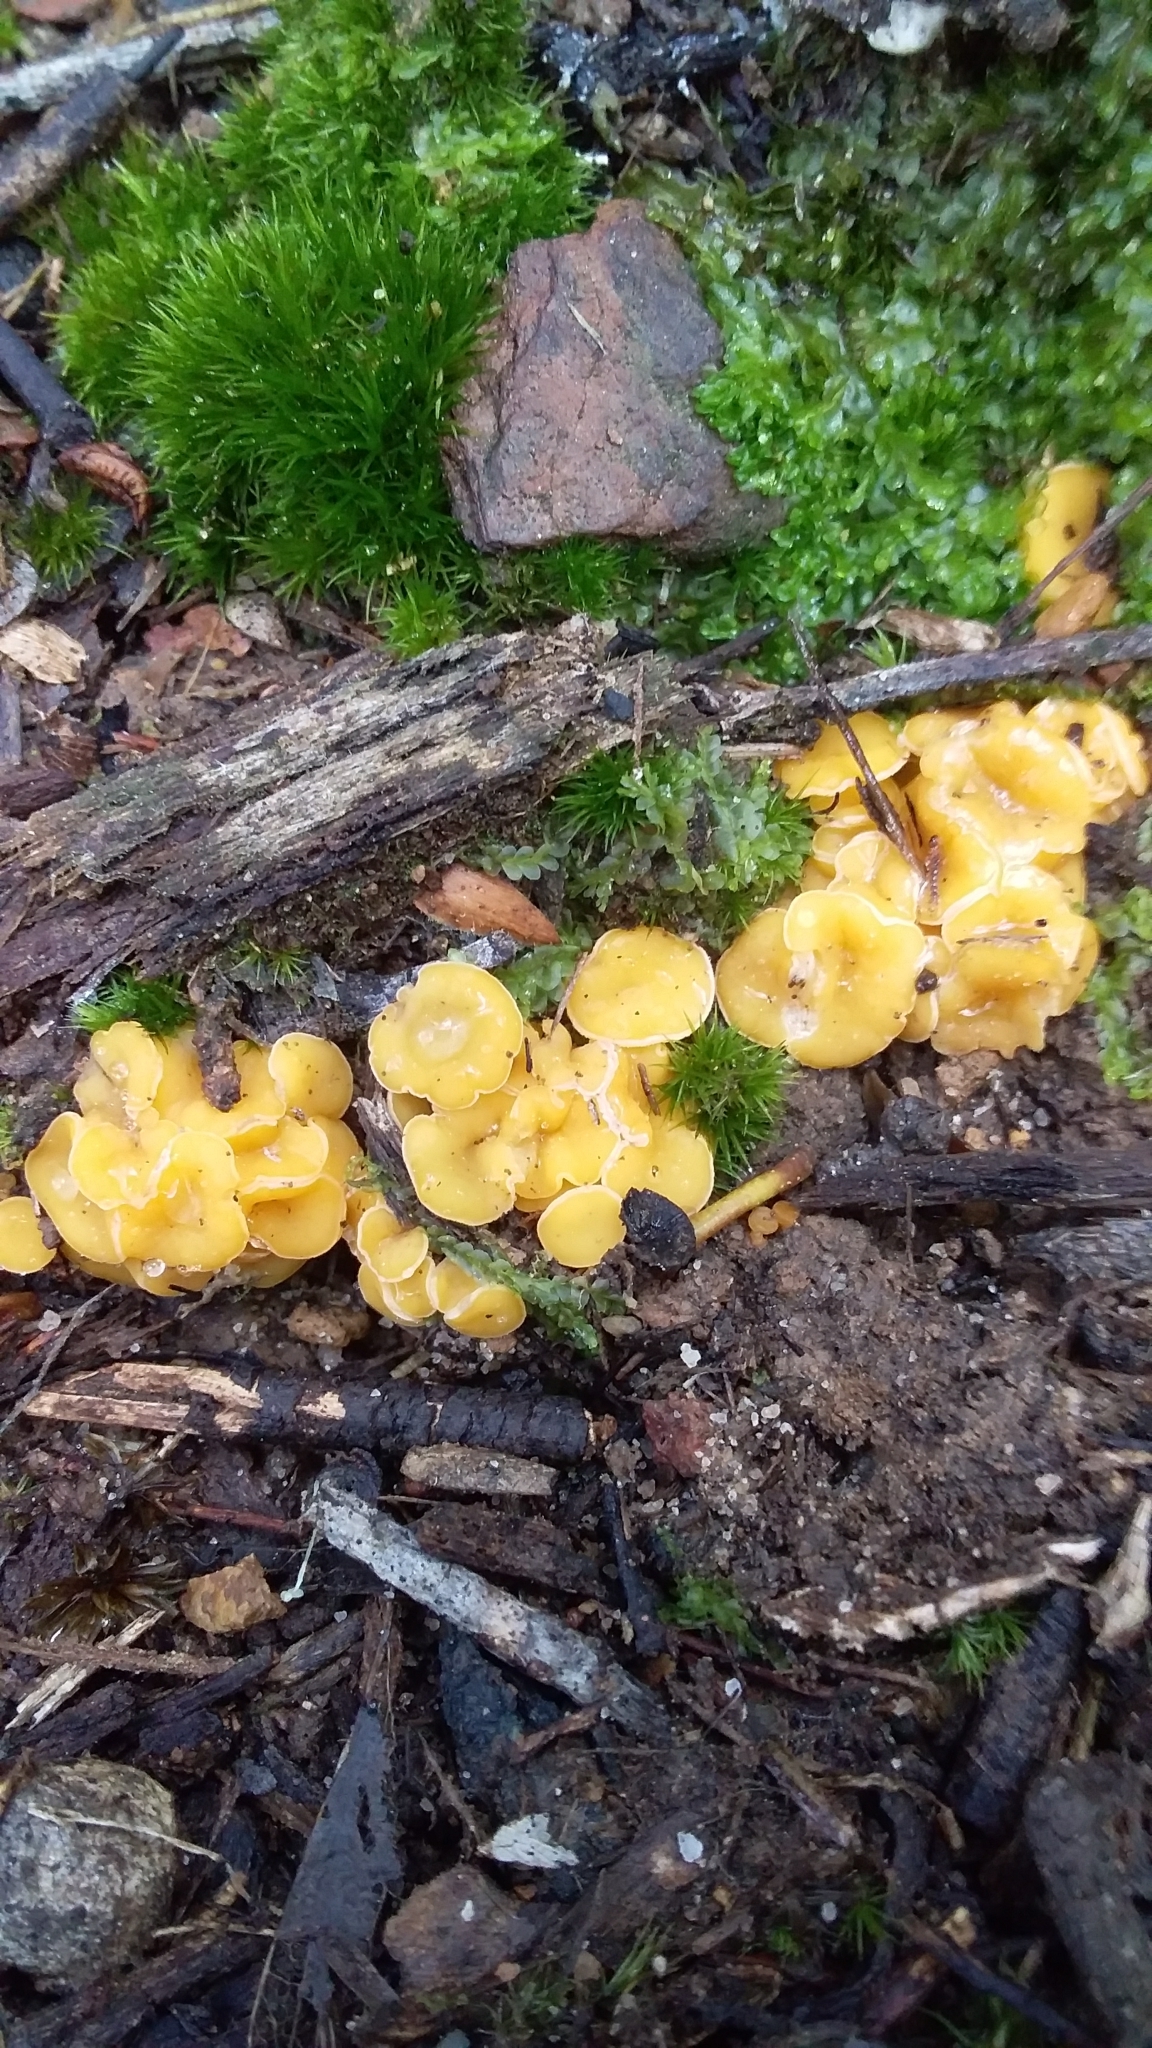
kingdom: Fungi
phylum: Ascomycota
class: Leotiomycetes
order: Helotiales
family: Helotiaceae
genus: Phaeohelotium
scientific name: Phaeohelotium baileyanum
